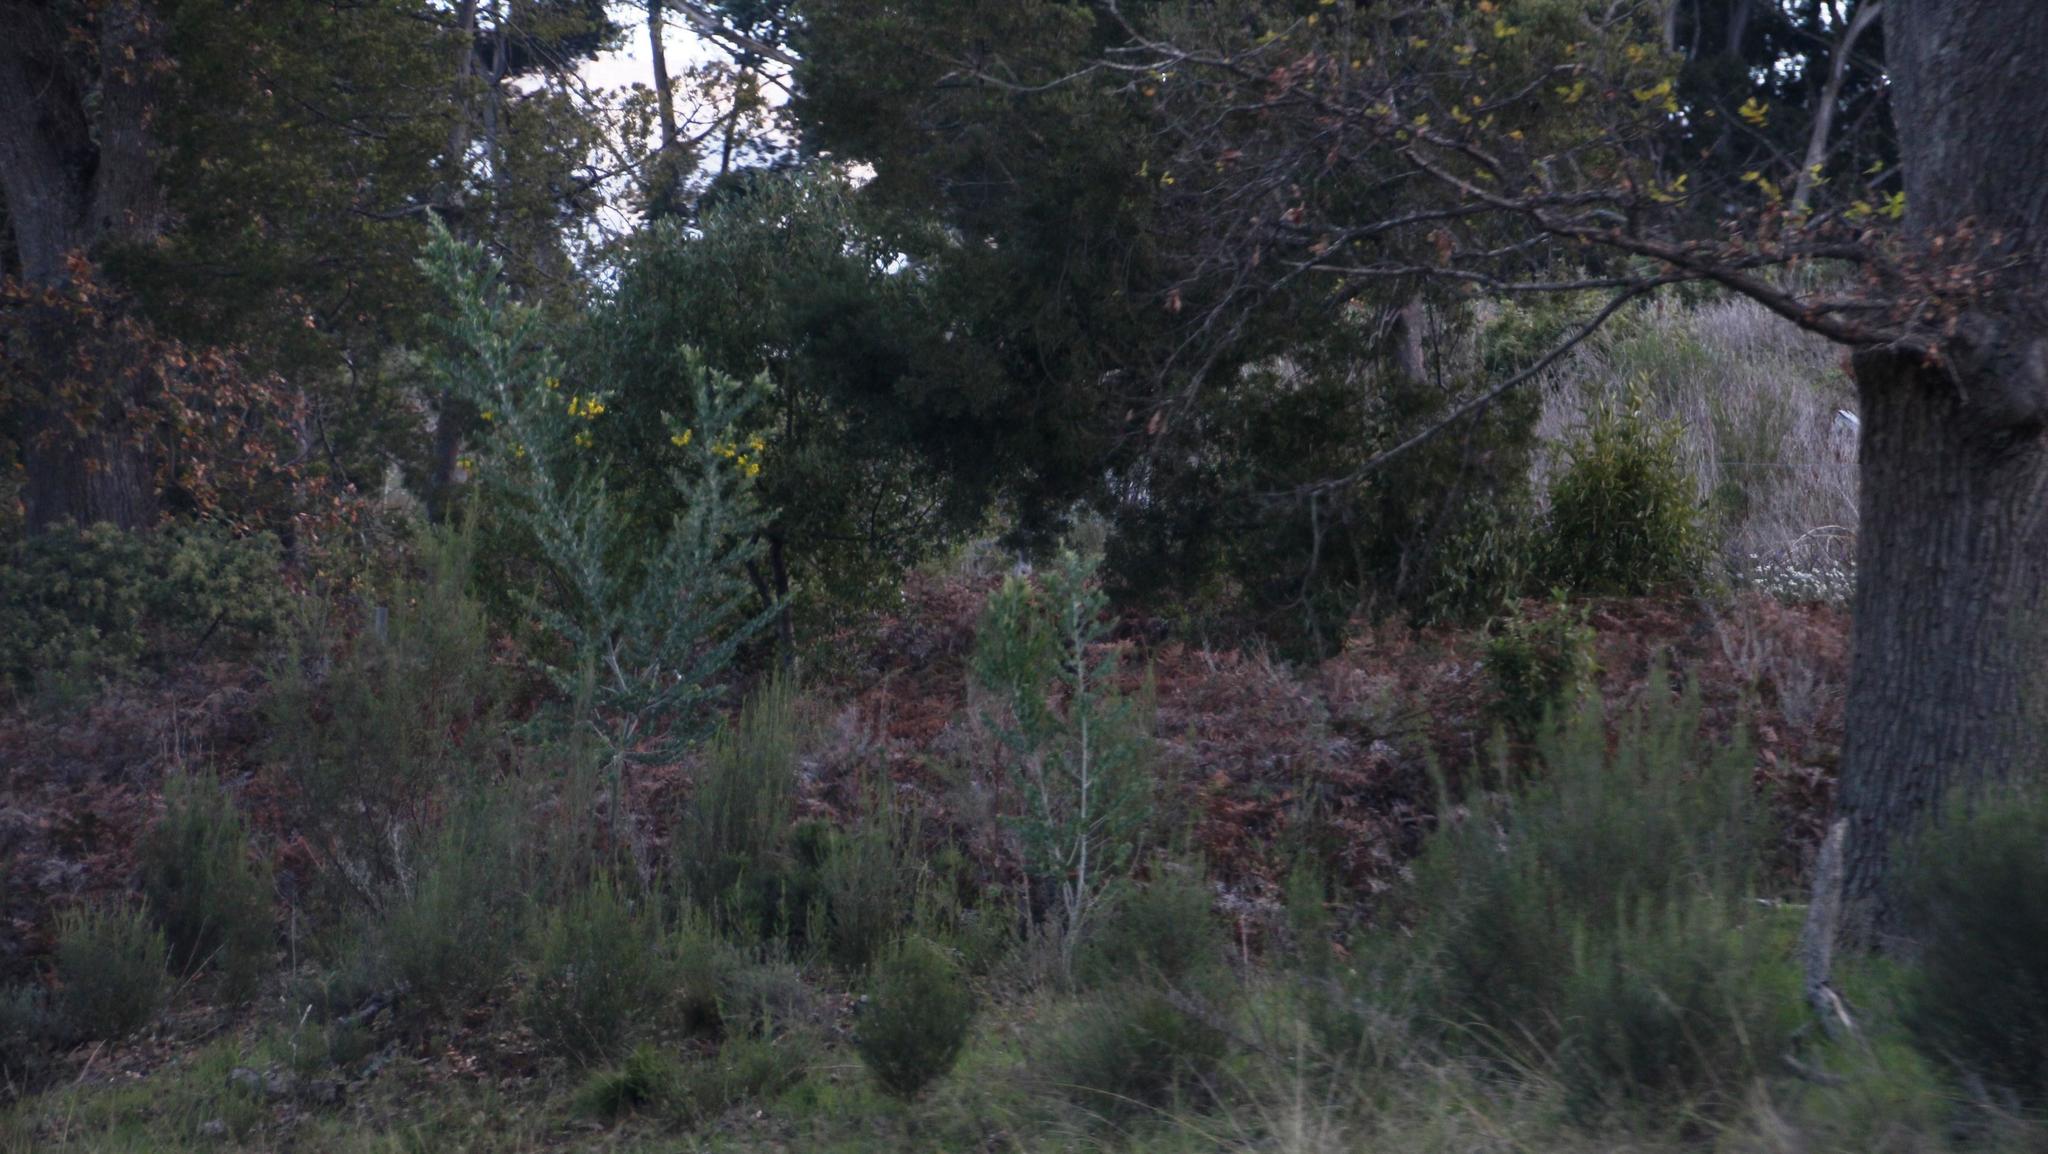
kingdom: Plantae
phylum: Tracheophyta
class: Magnoliopsida
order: Fabales
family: Fabaceae
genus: Acacia
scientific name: Acacia podalyriifolia
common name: Pearl wattle
